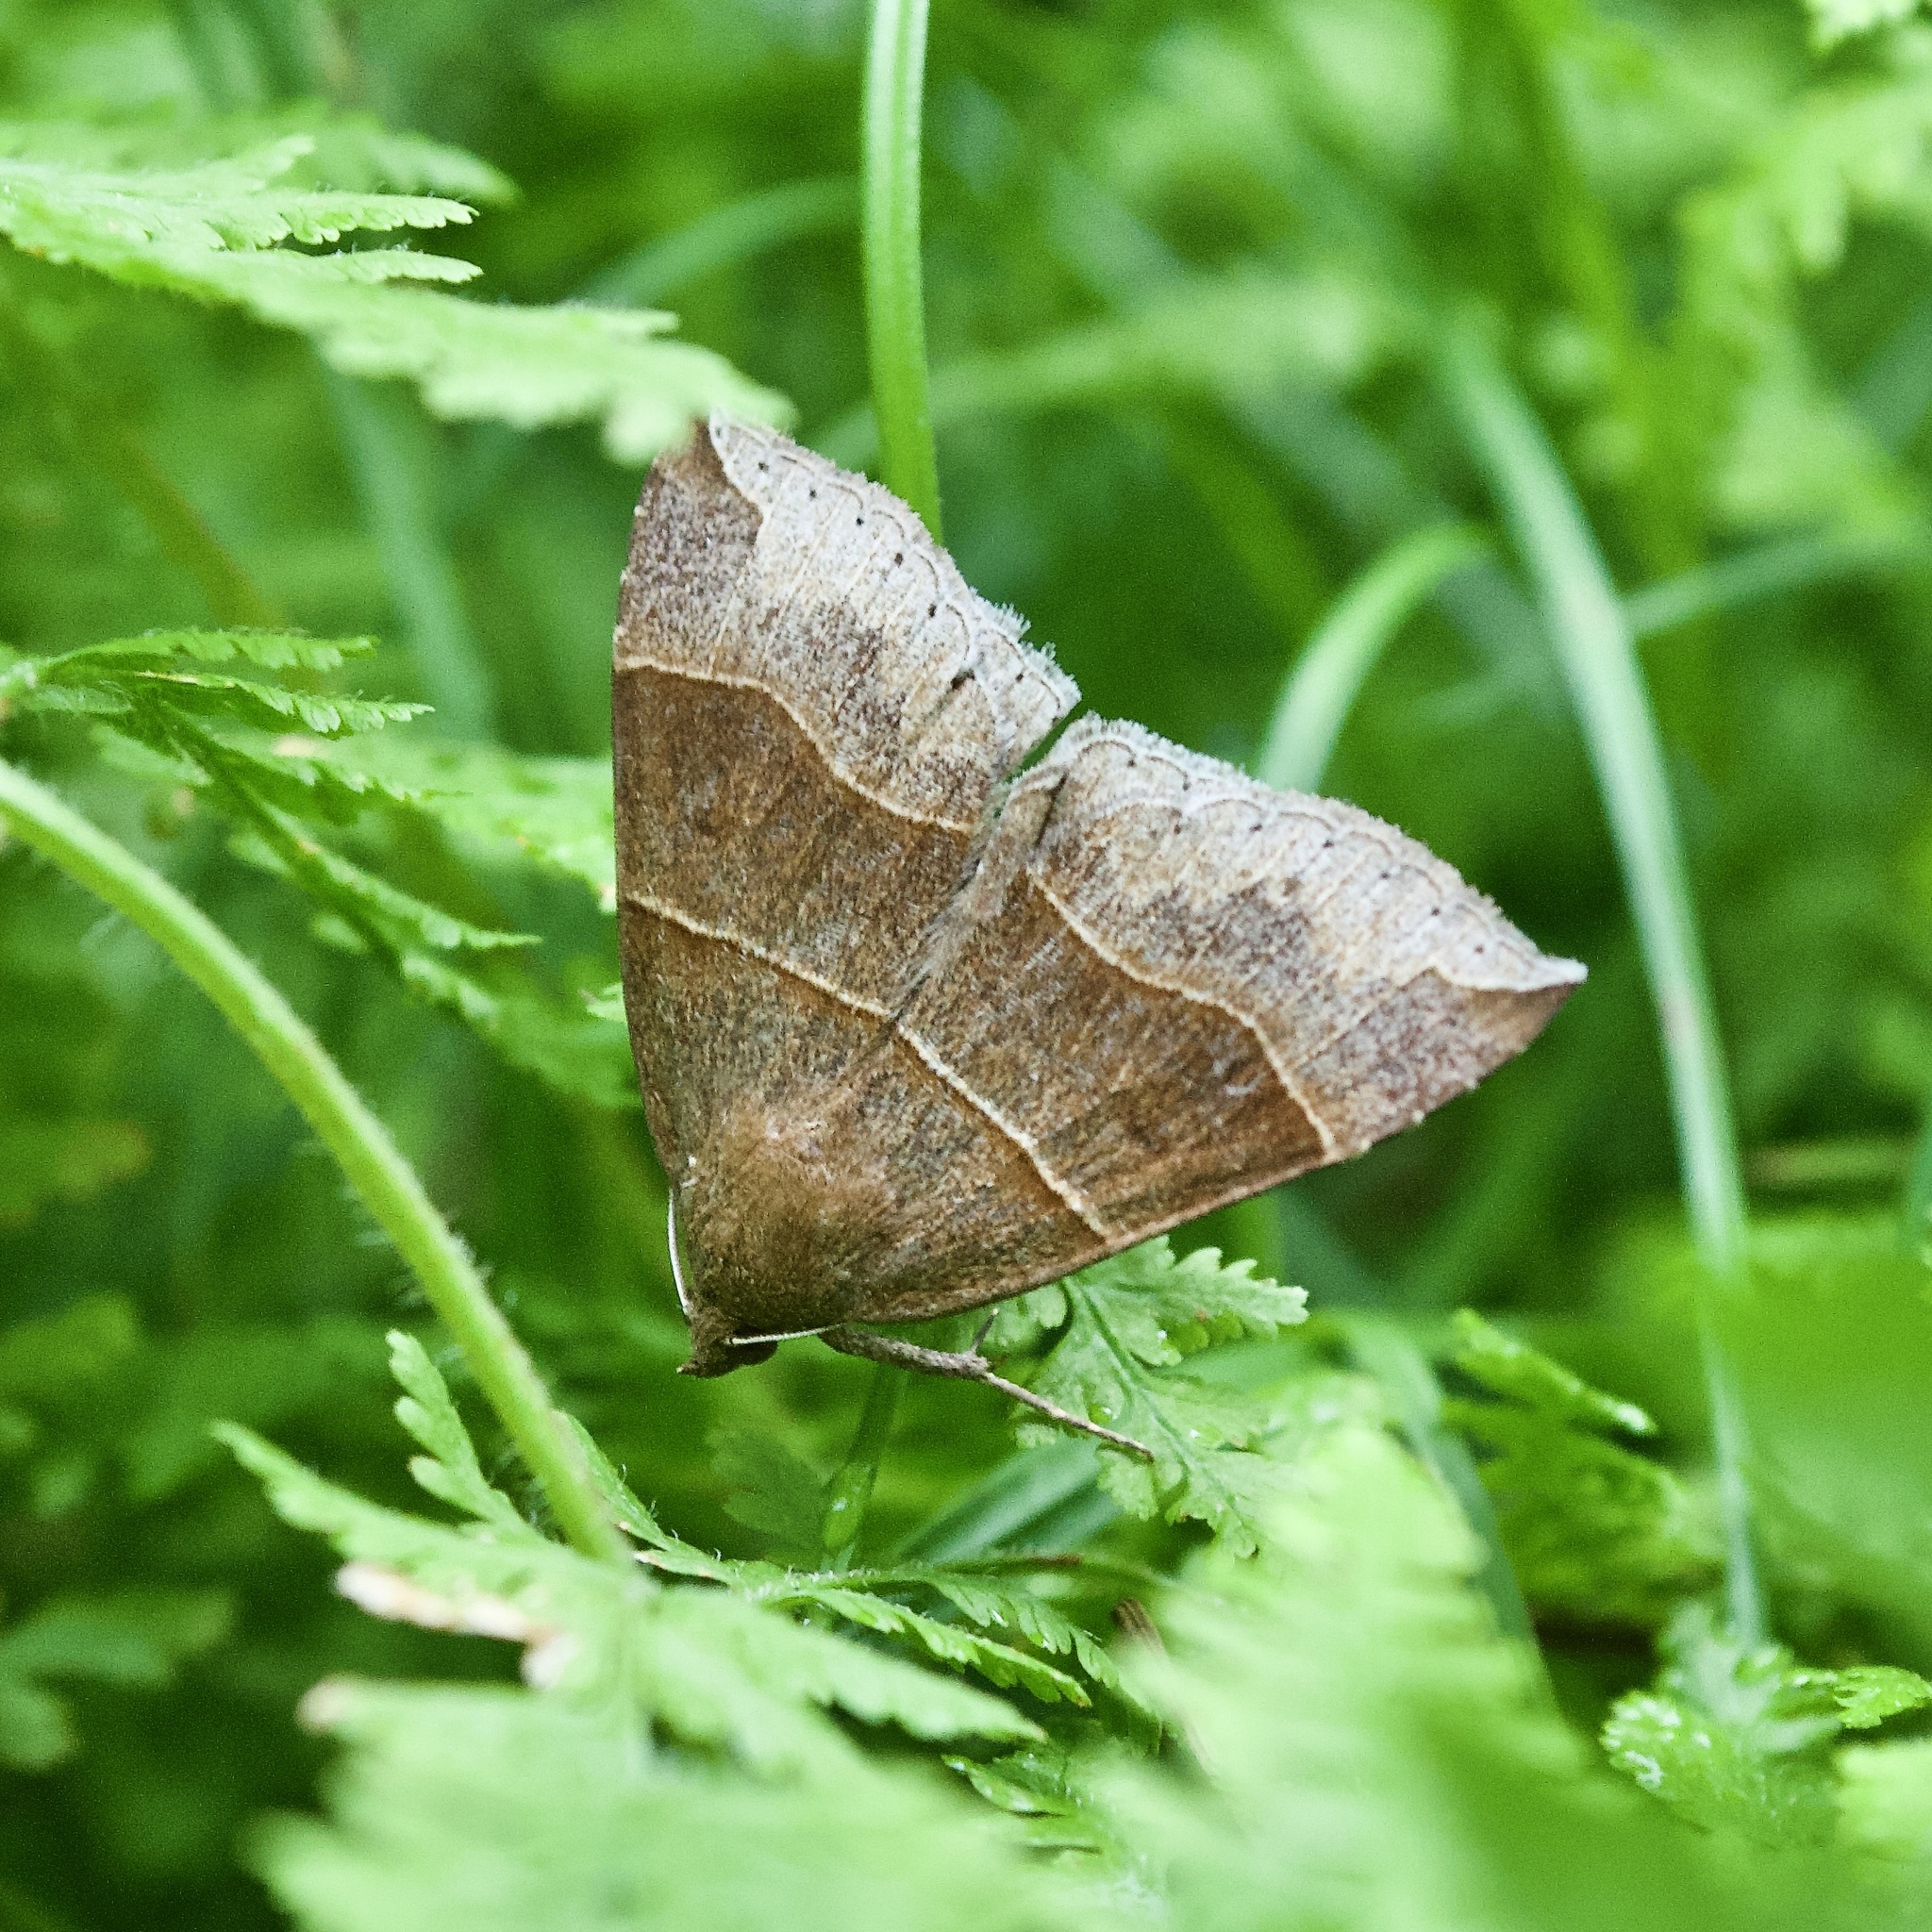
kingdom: Animalia
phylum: Arthropoda
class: Insecta
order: Lepidoptera
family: Erebidae
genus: Parallelia
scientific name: Parallelia bistriaris
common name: Maple looper moth
